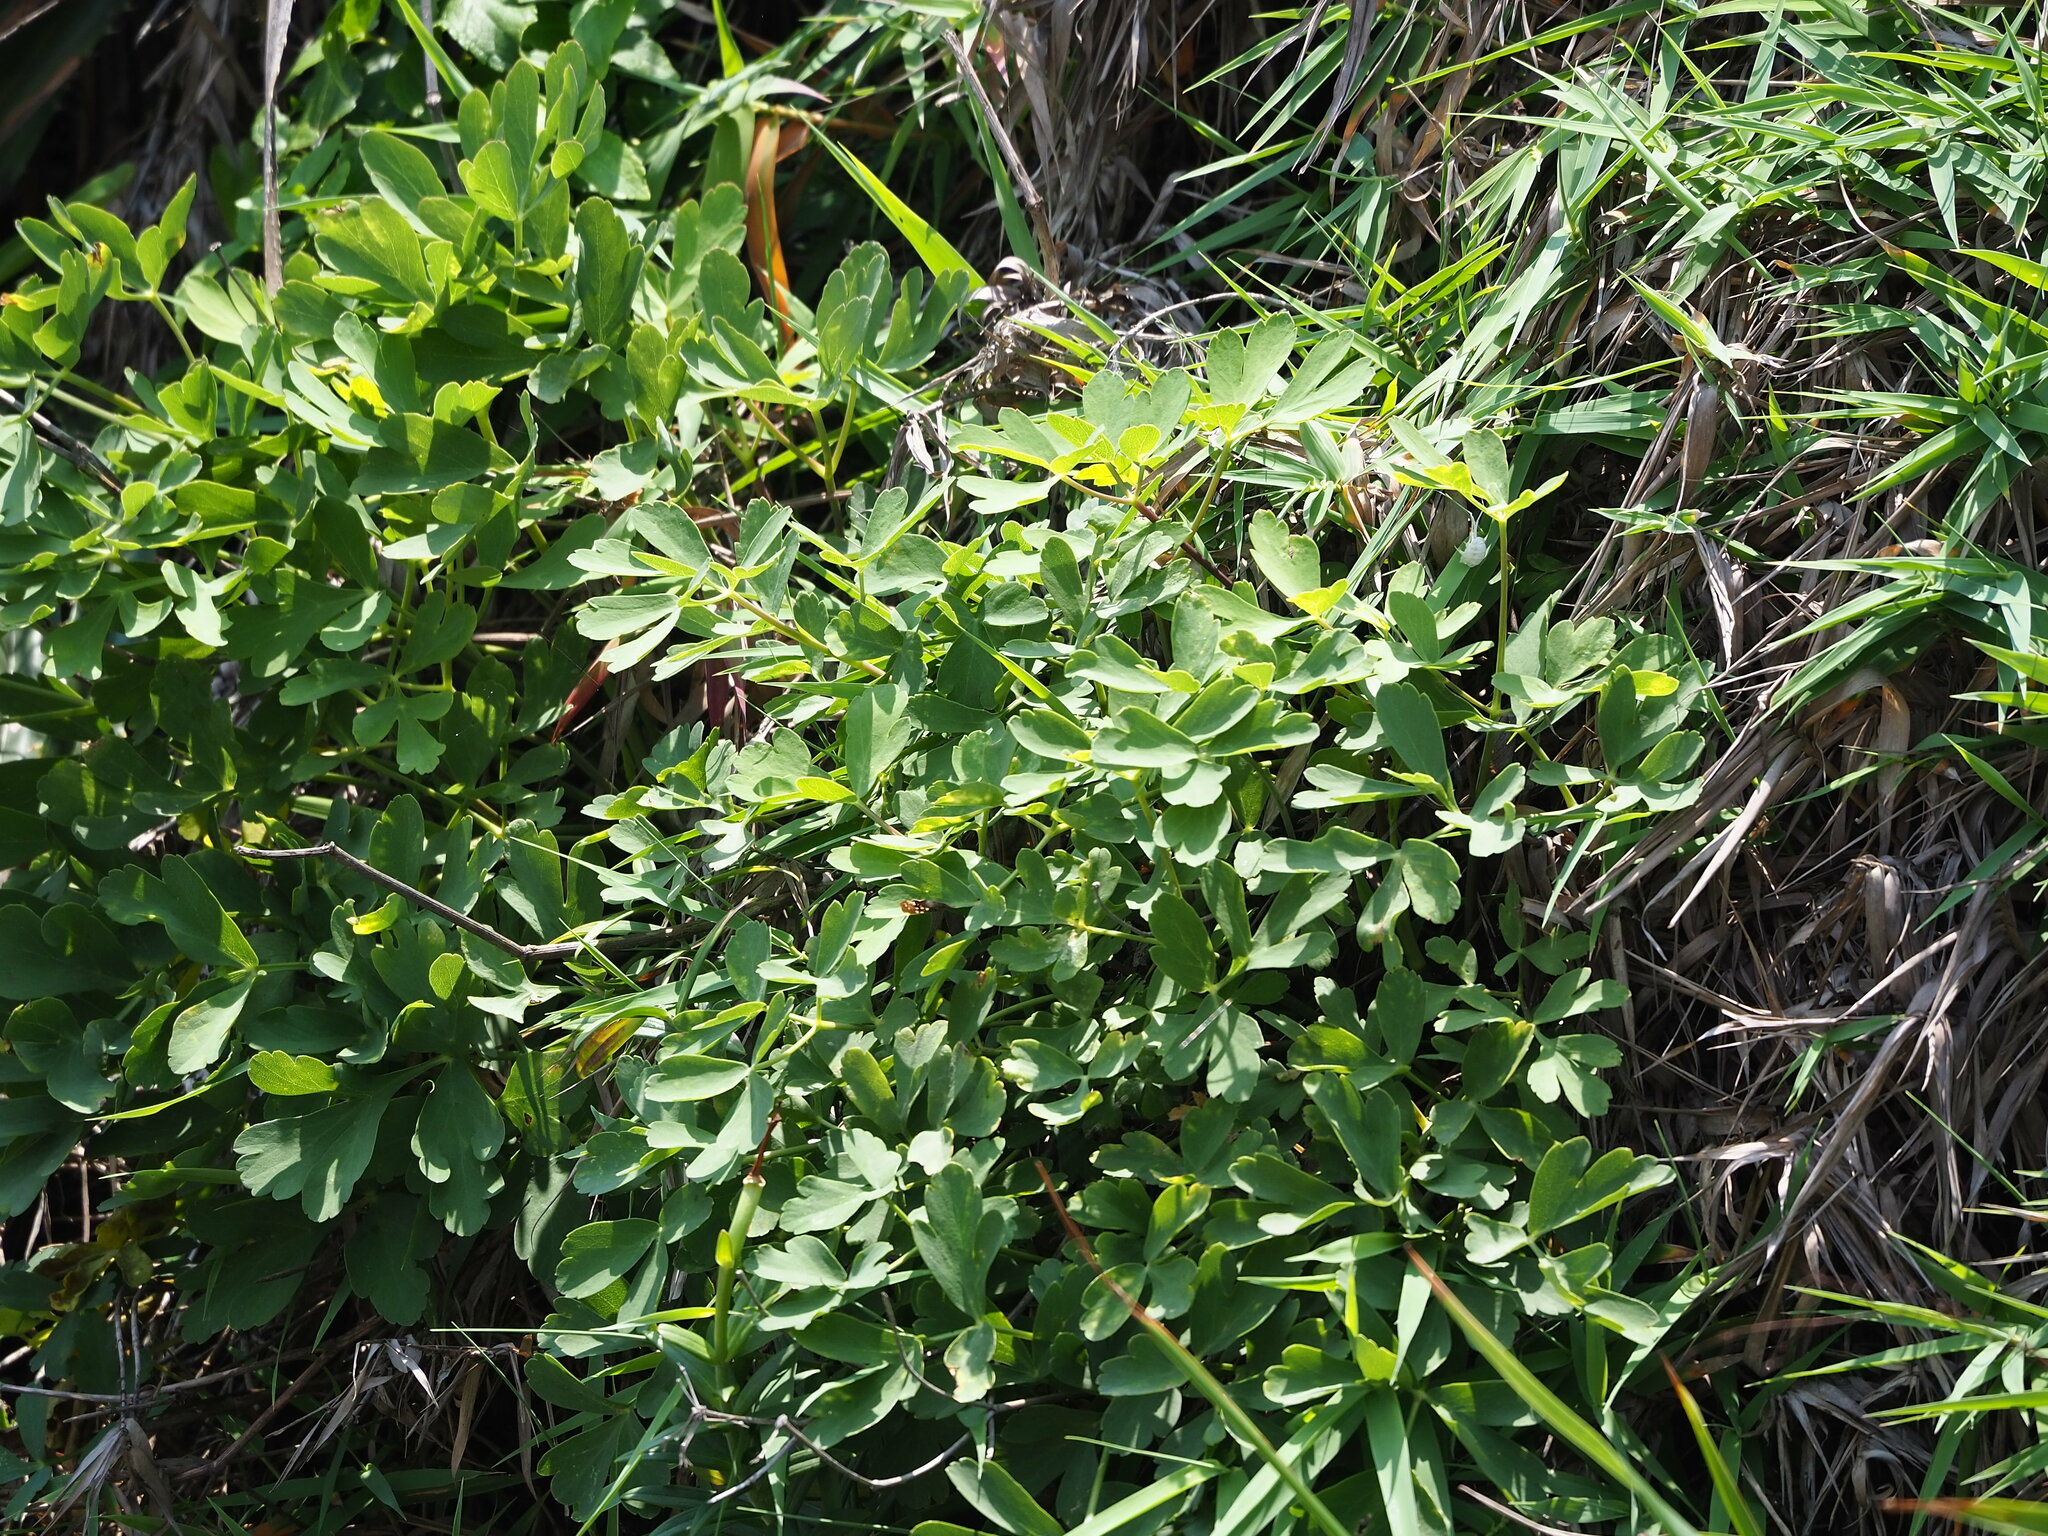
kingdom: Plantae
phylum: Tracheophyta
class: Magnoliopsida
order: Apiales
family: Apiaceae
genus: Peucedanum
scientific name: Peucedanum japonicum
